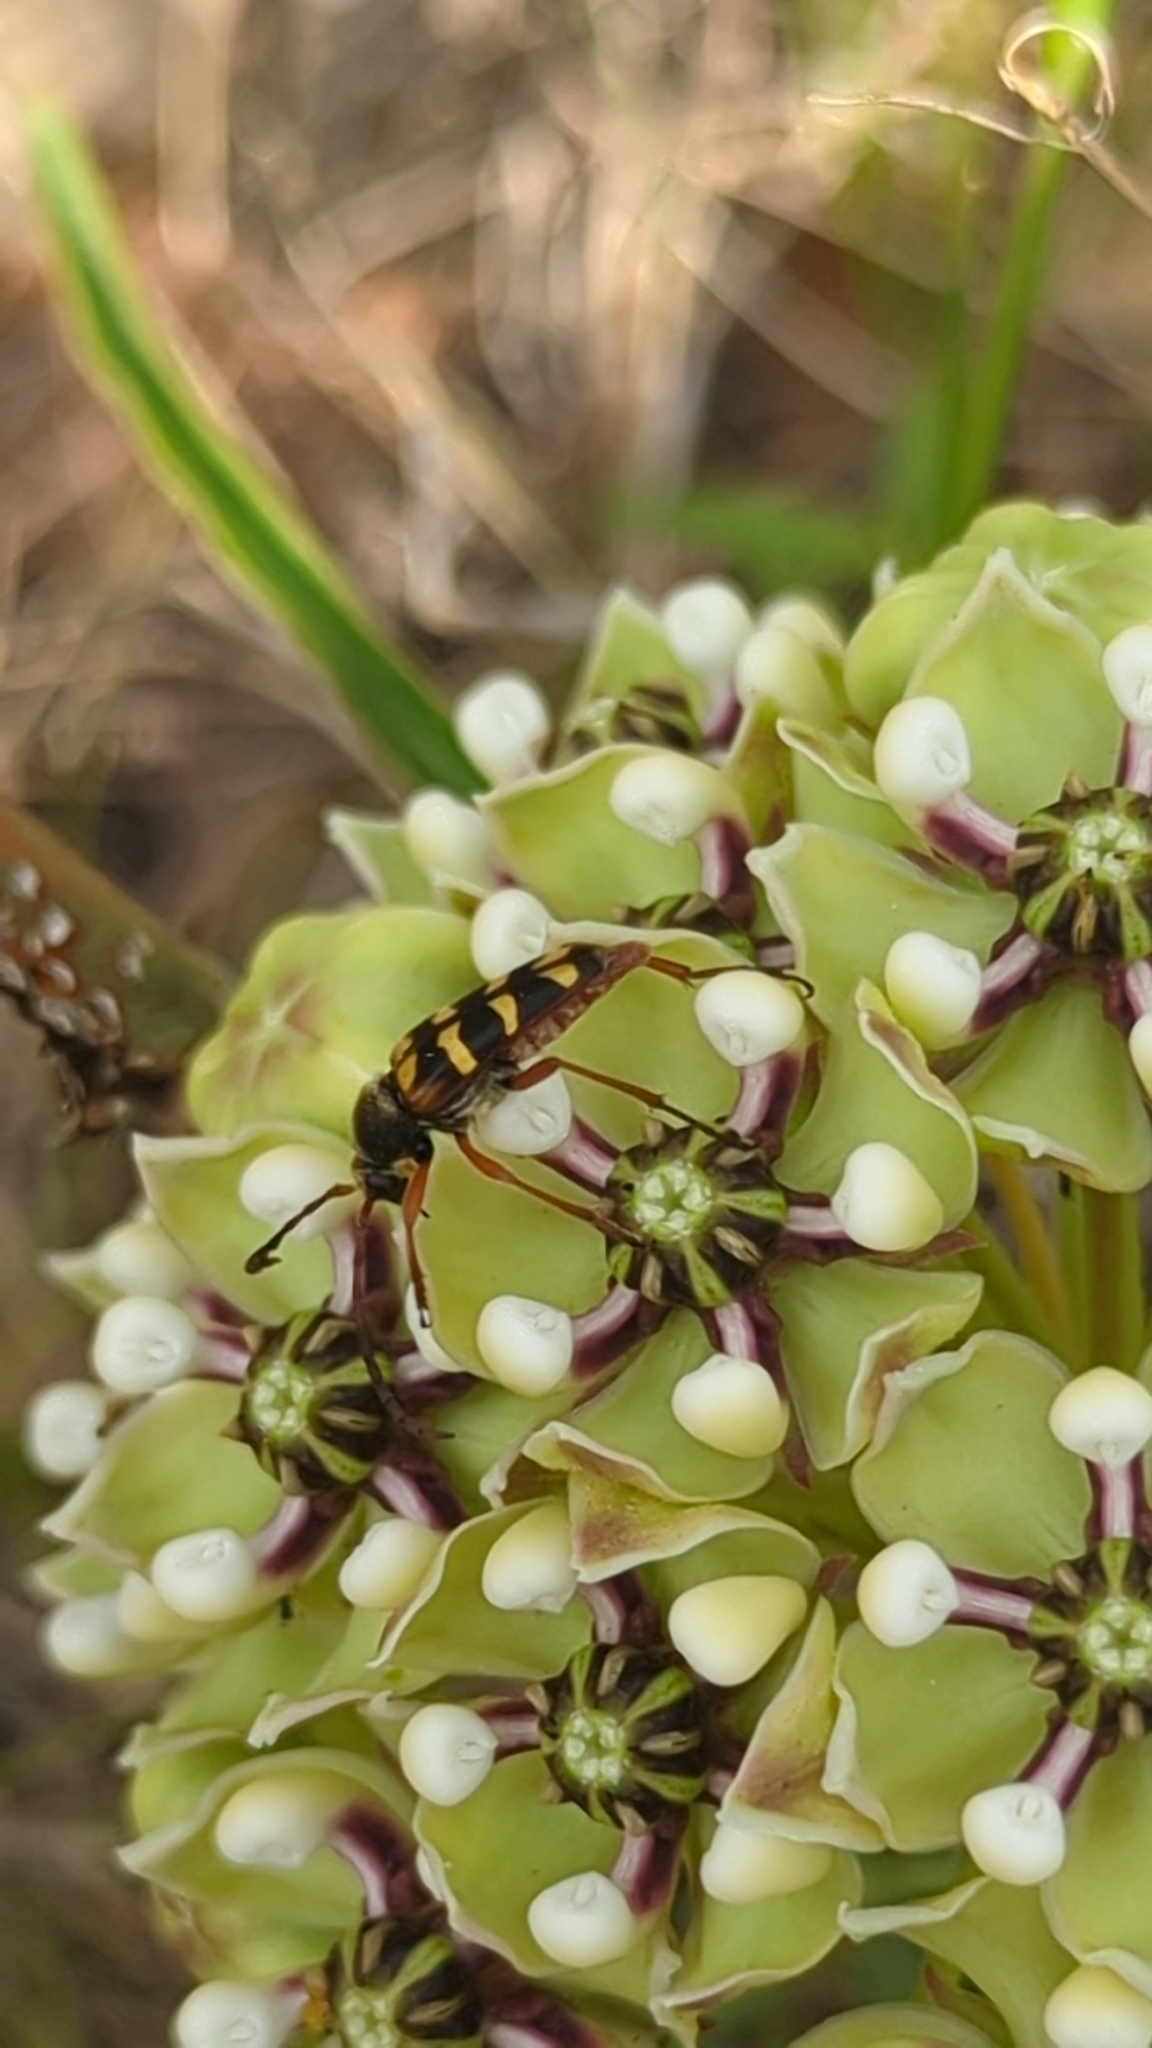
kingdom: Animalia
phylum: Arthropoda
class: Insecta
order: Coleoptera
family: Cerambycidae
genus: Typocerus
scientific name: Typocerus zebra
